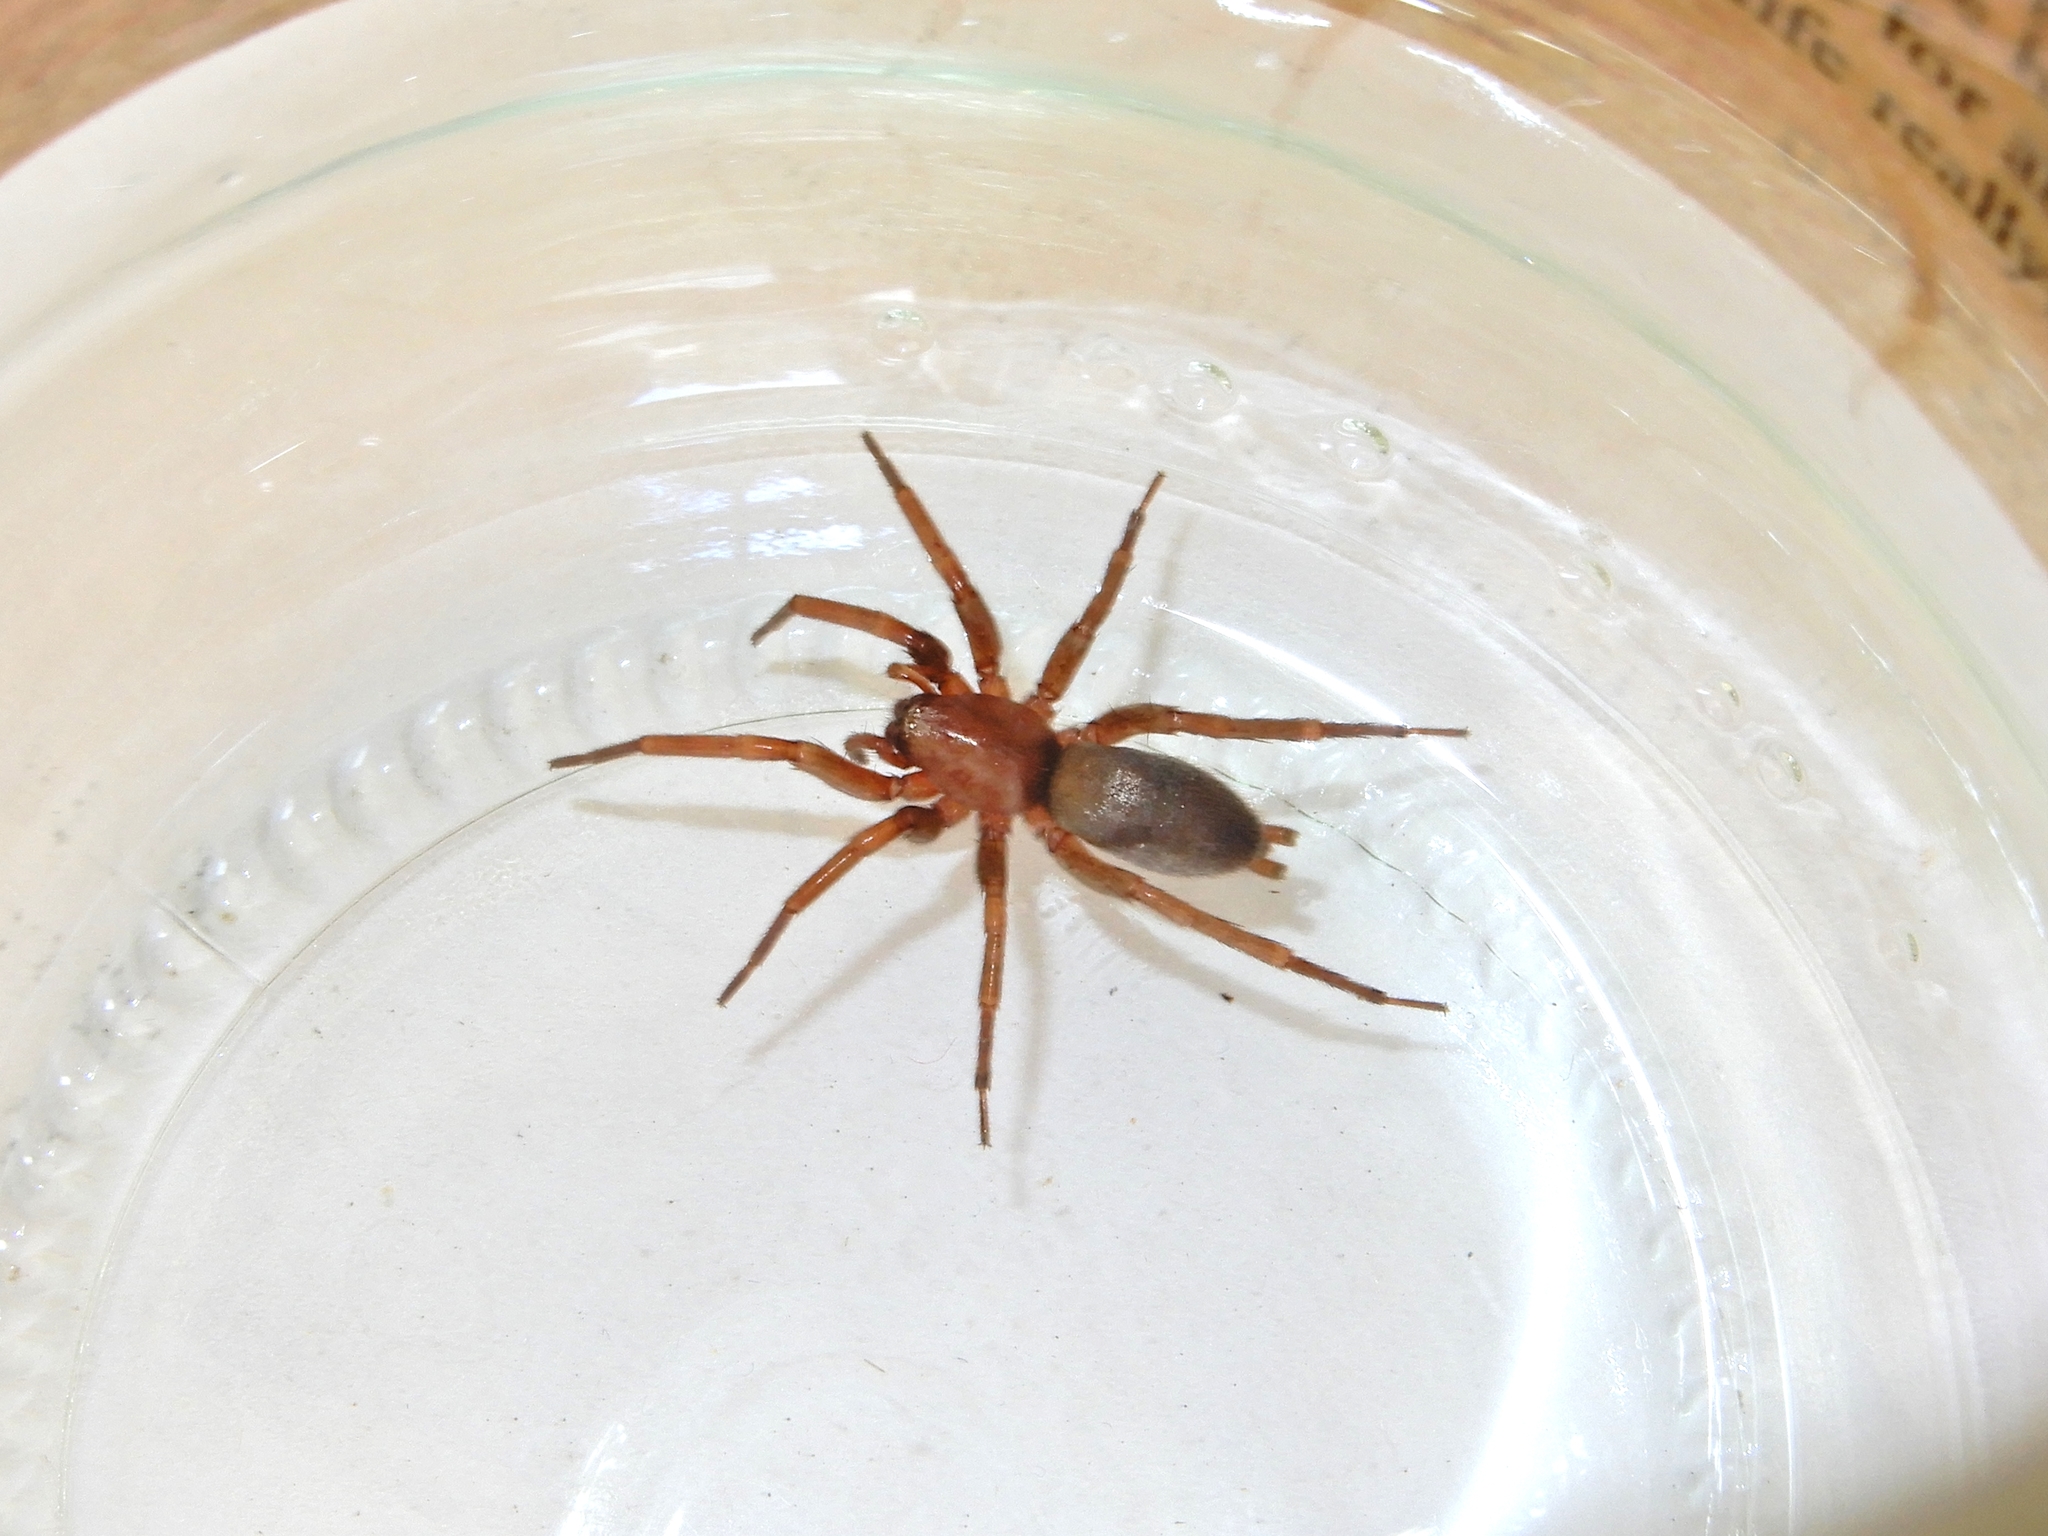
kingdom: Animalia
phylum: Arthropoda
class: Arachnida
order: Araneae
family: Gnaphosidae
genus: Hypodrassodes
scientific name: Hypodrassodes maoricus
